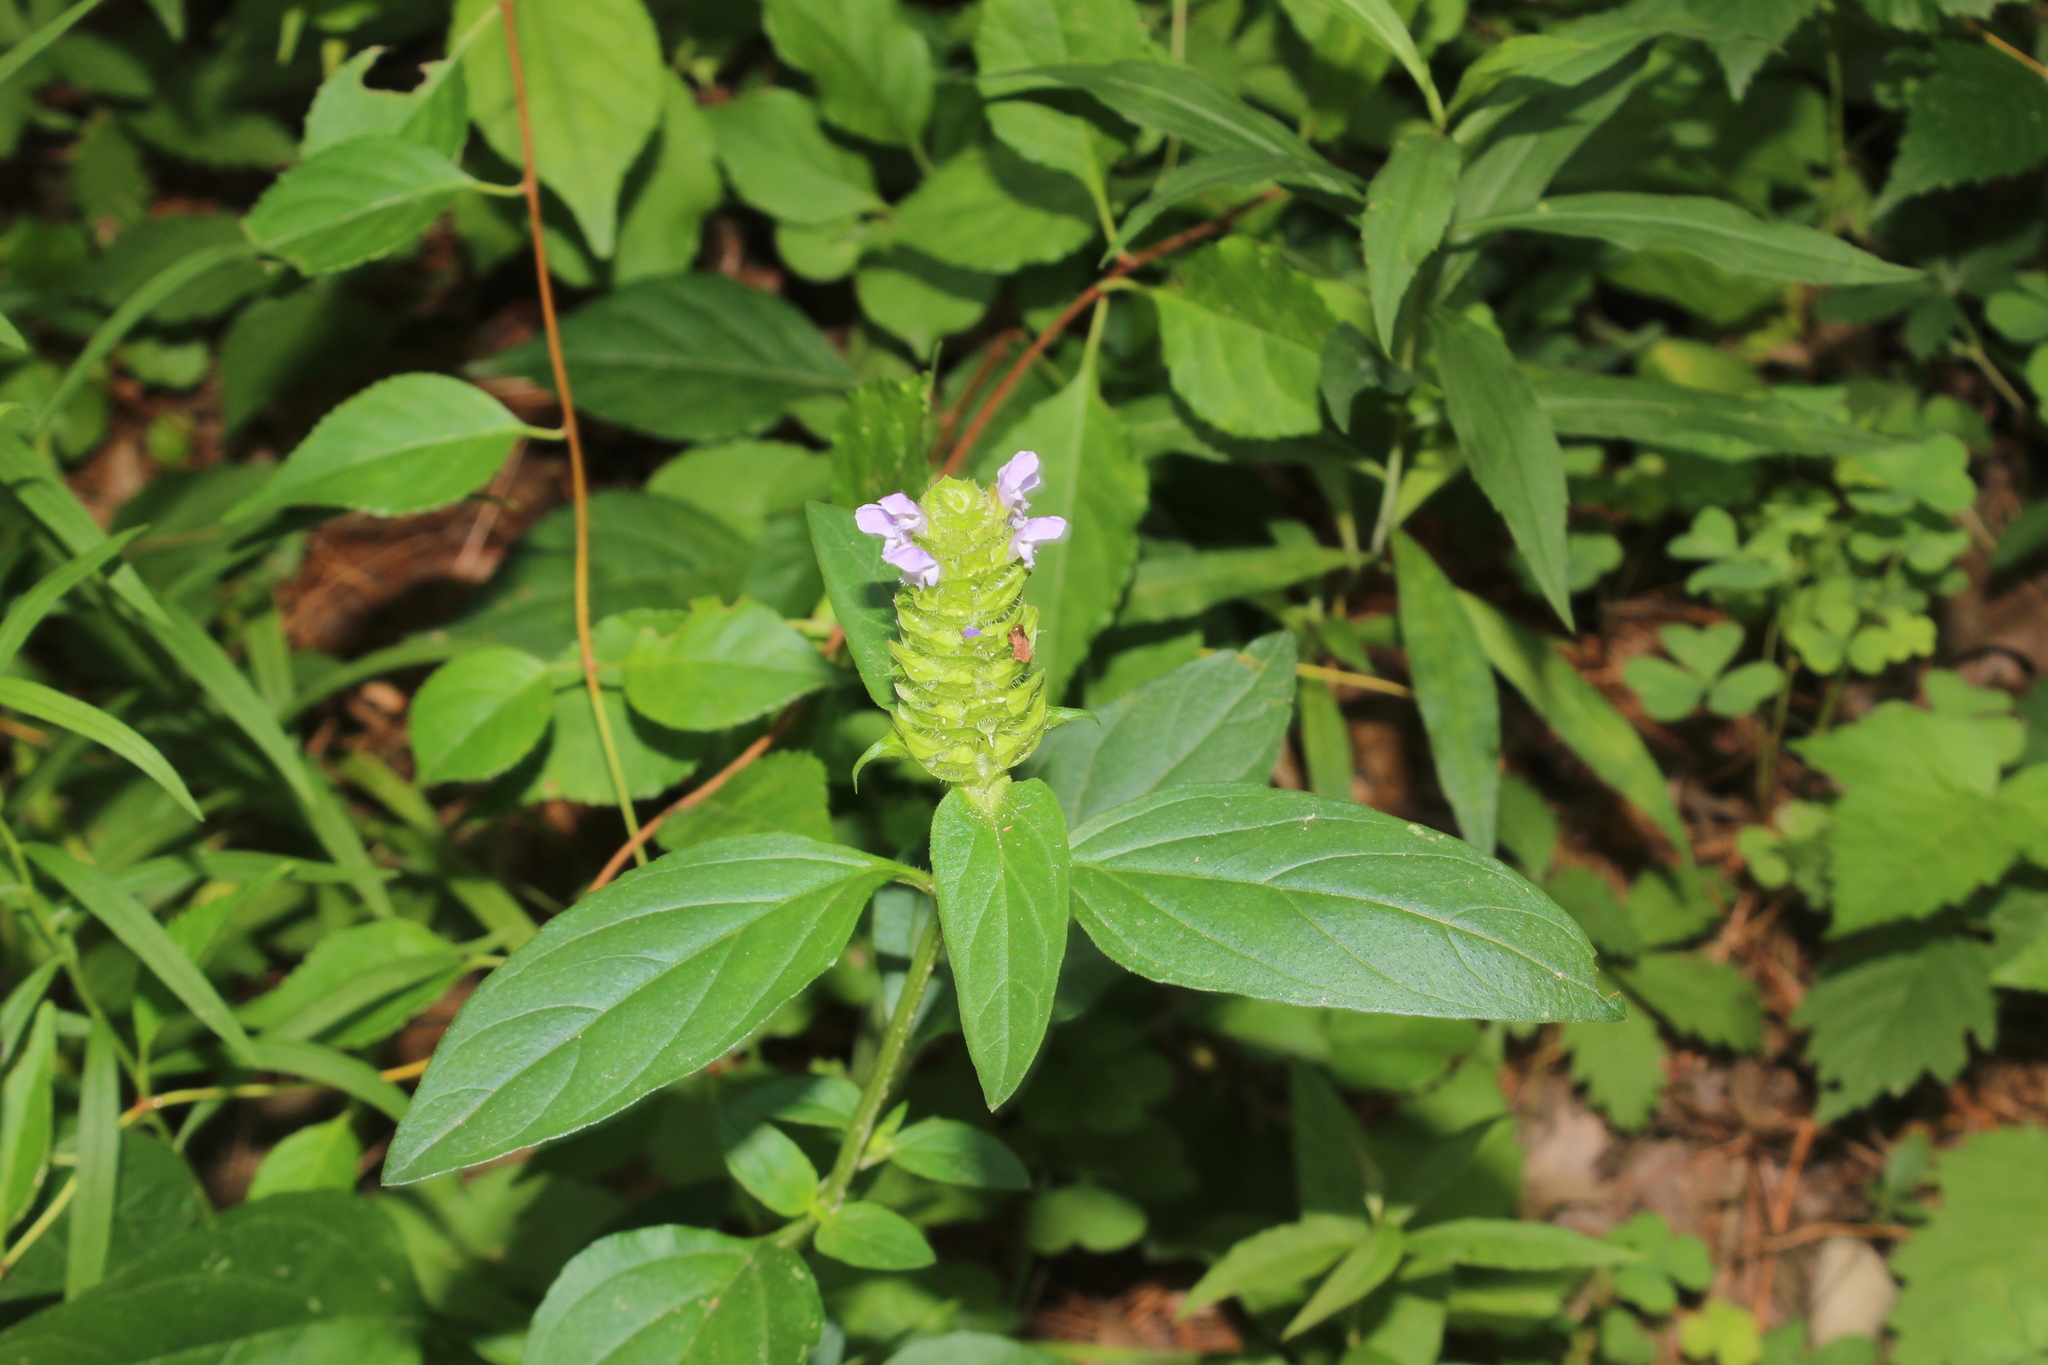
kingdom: Plantae
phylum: Tracheophyta
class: Magnoliopsida
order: Lamiales
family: Lamiaceae
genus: Prunella
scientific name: Prunella vulgaris
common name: Heal-all
